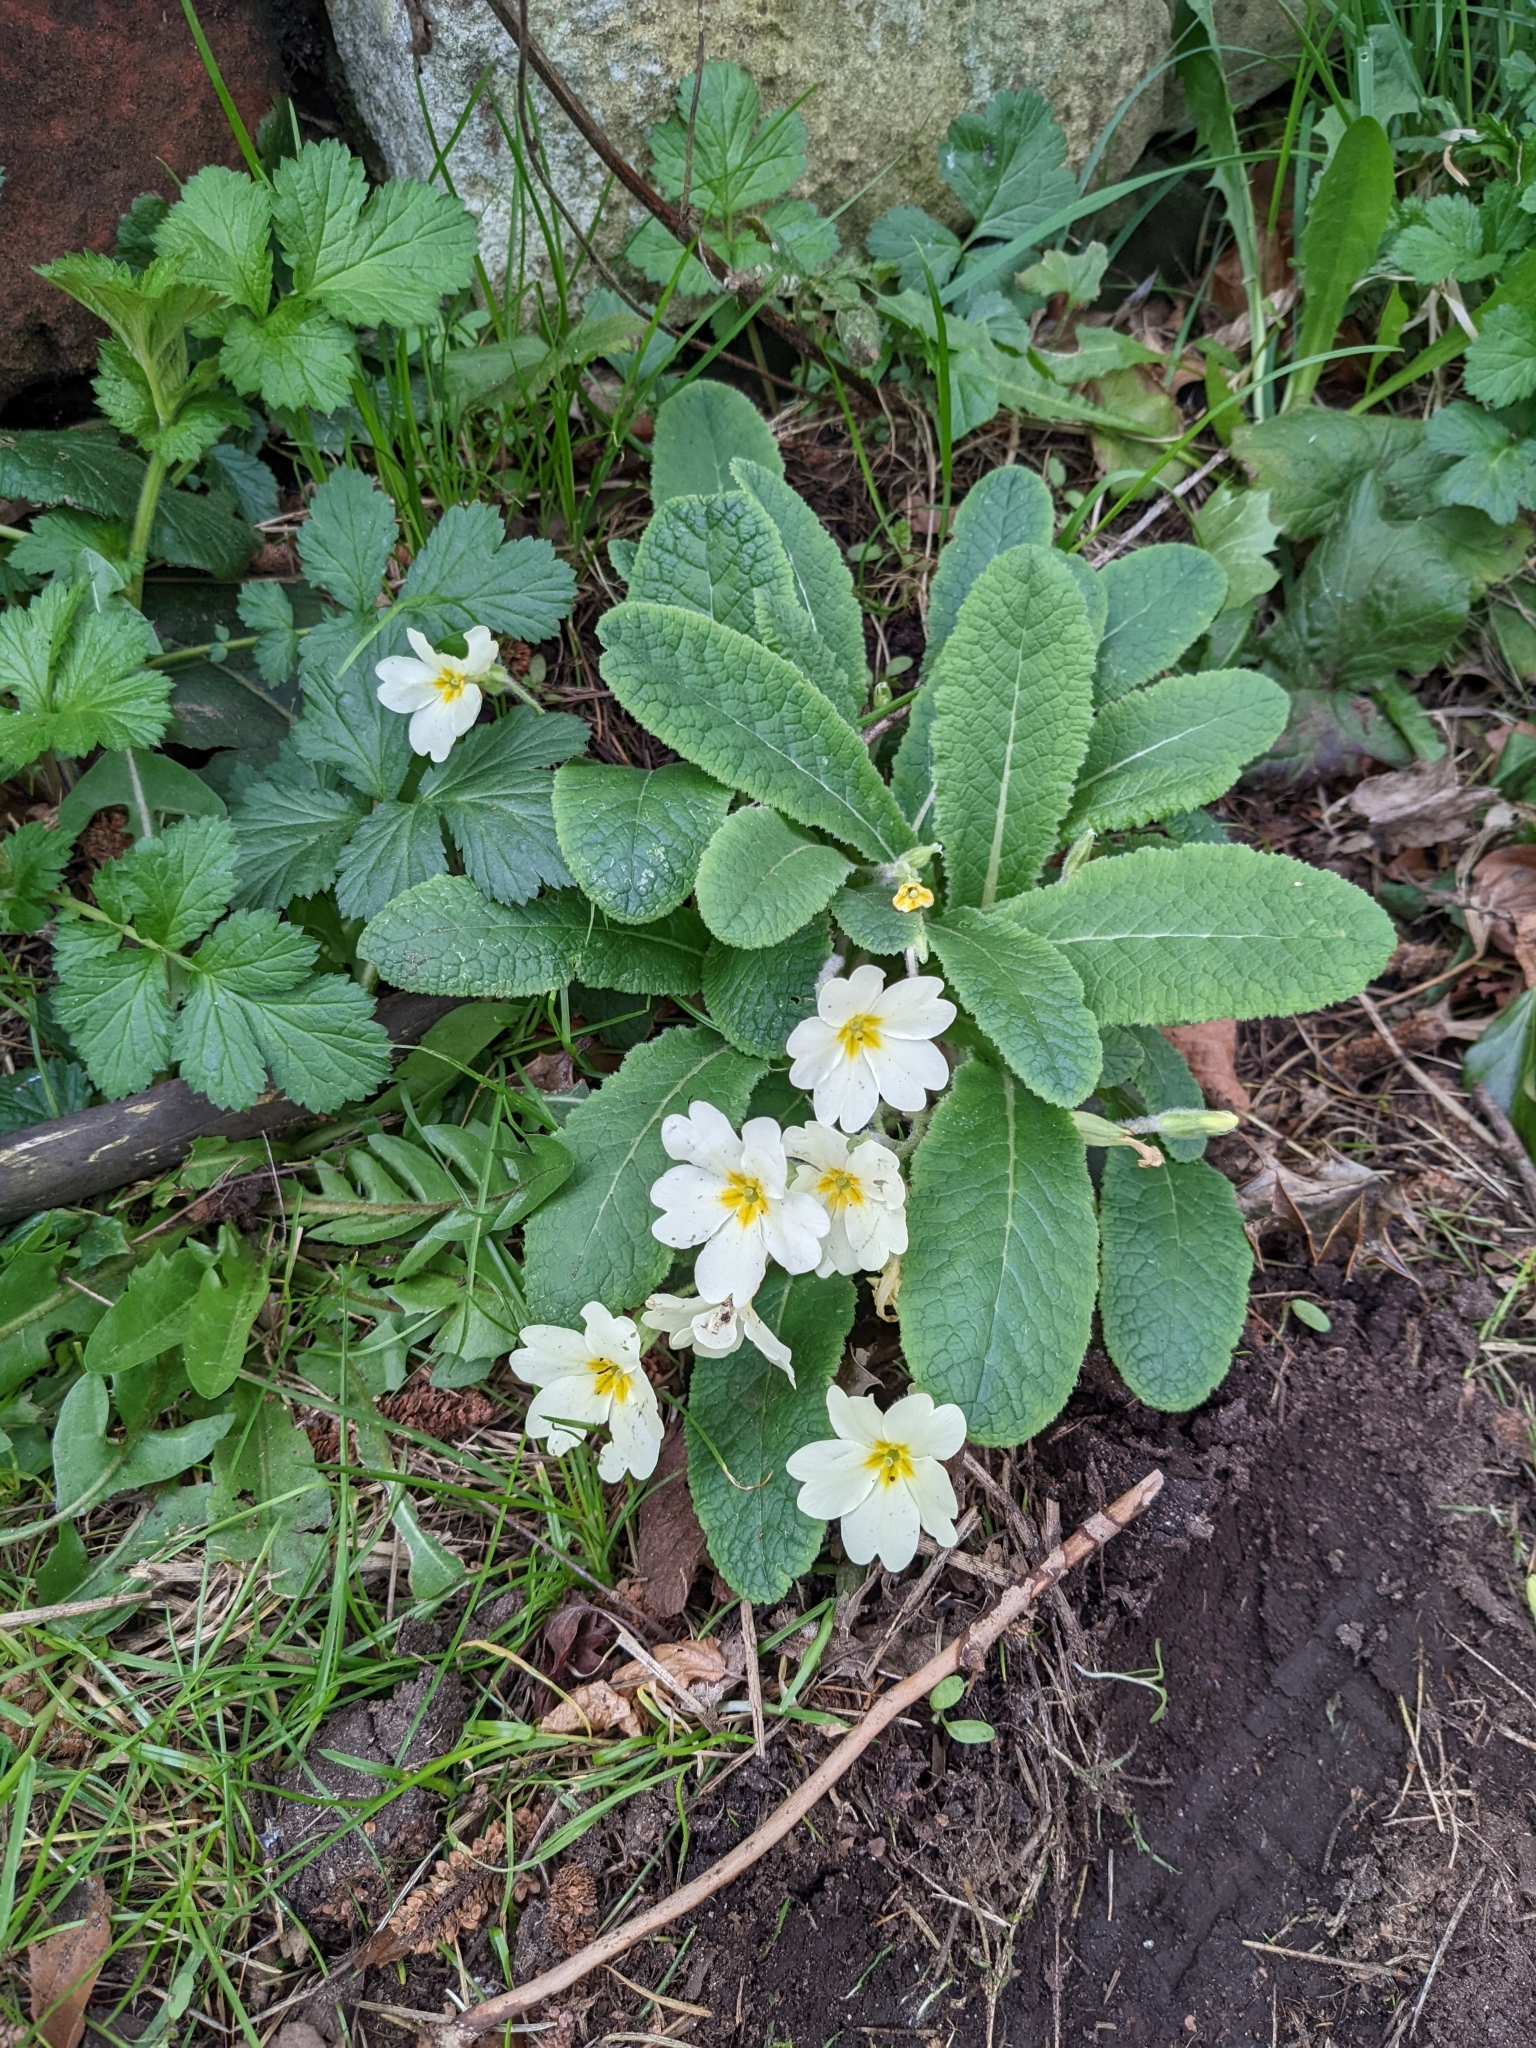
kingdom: Plantae
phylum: Tracheophyta
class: Magnoliopsida
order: Ericales
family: Primulaceae
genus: Primula
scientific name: Primula vulgaris
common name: Primrose
